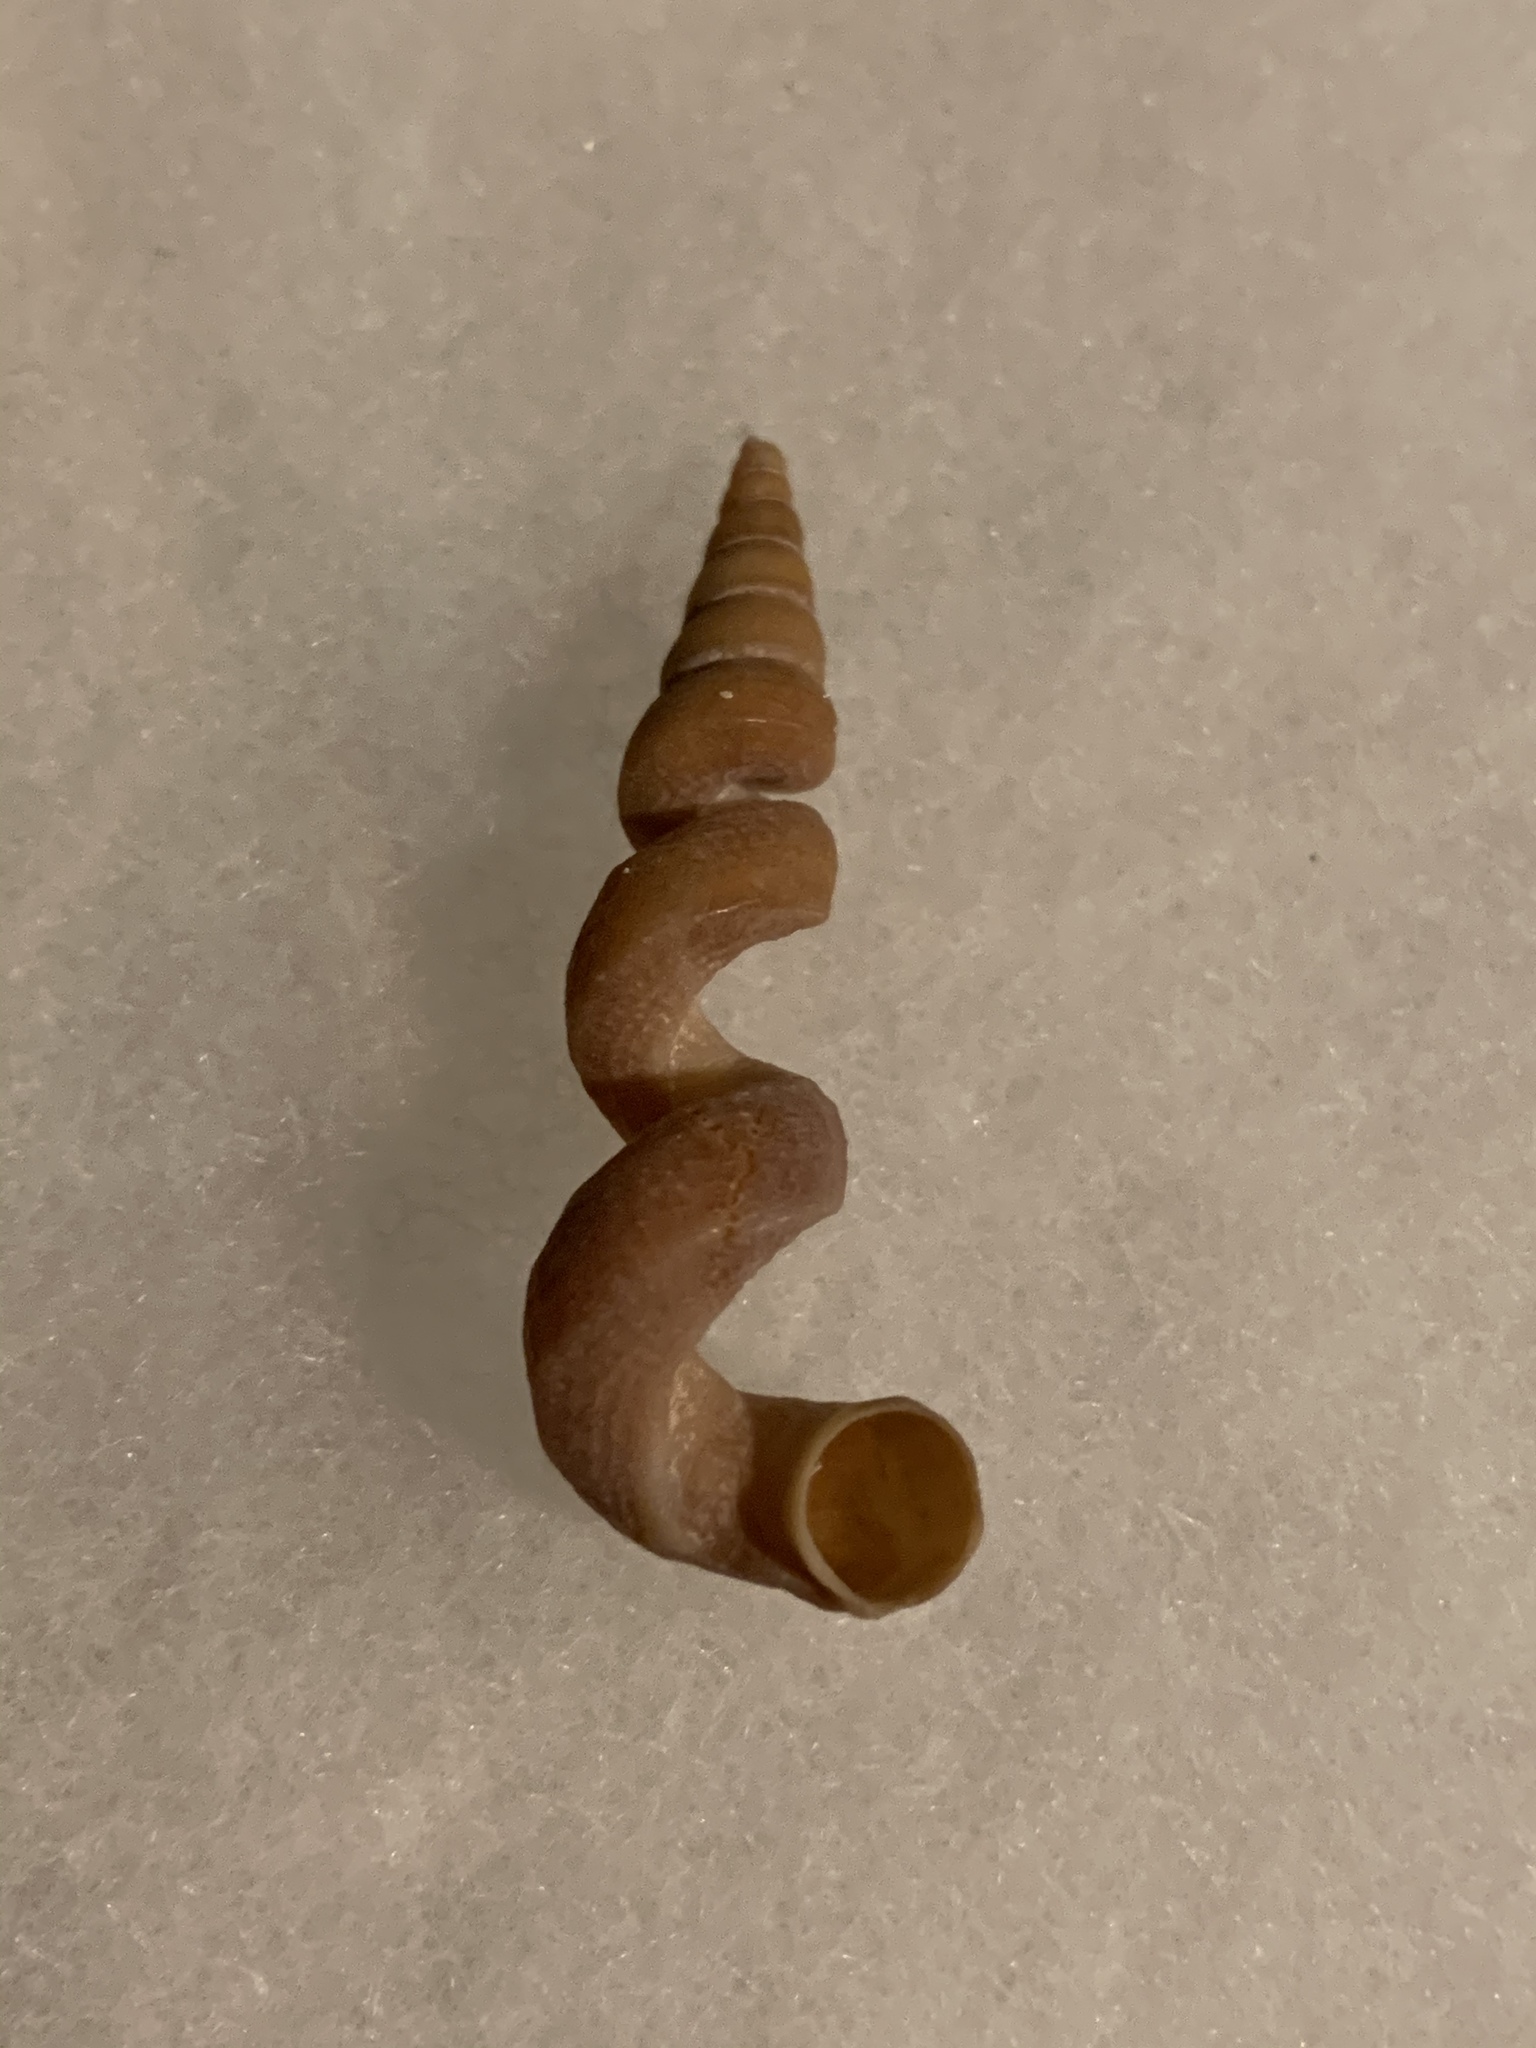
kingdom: Animalia
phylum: Mollusca
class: Gastropoda
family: Turritellidae
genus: Vermicularia
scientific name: Vermicularia fargoi
